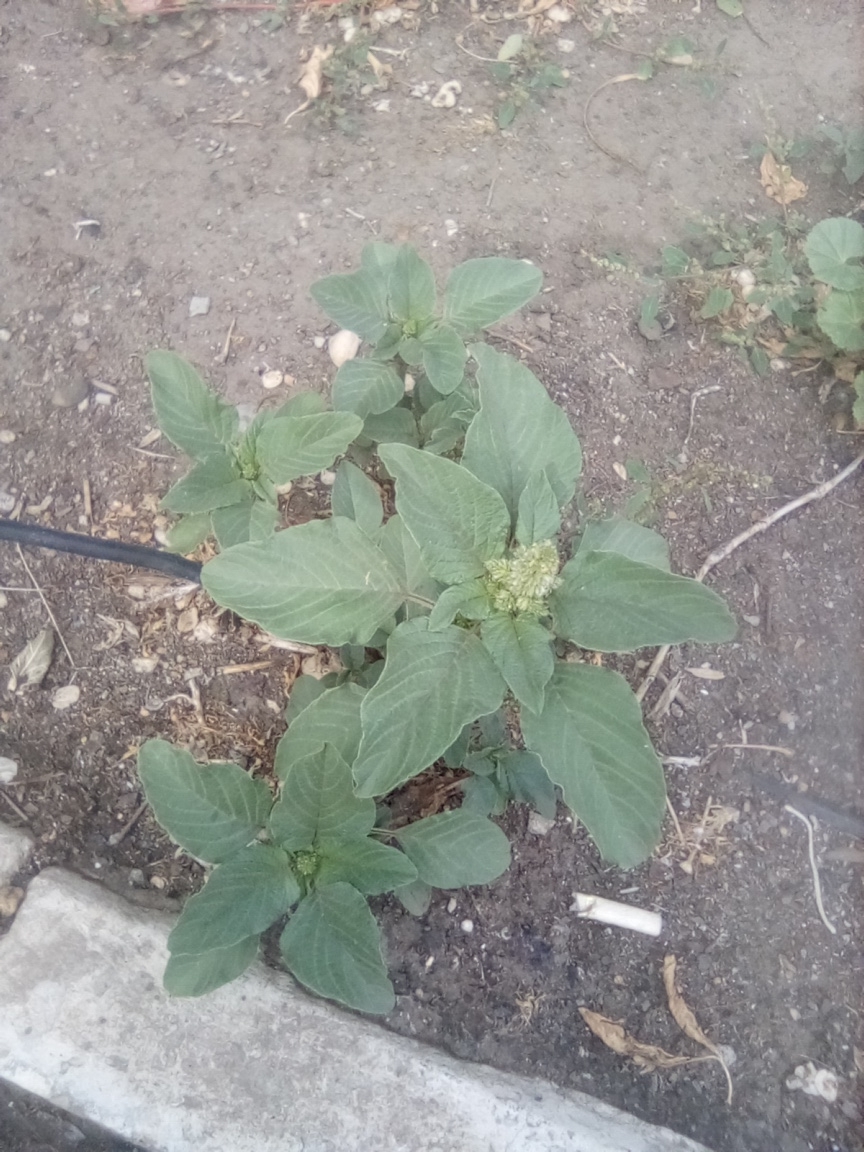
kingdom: Plantae
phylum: Tracheophyta
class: Magnoliopsida
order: Caryophyllales
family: Amaranthaceae
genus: Amaranthus
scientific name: Amaranthus retroflexus
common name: Redroot amaranth
